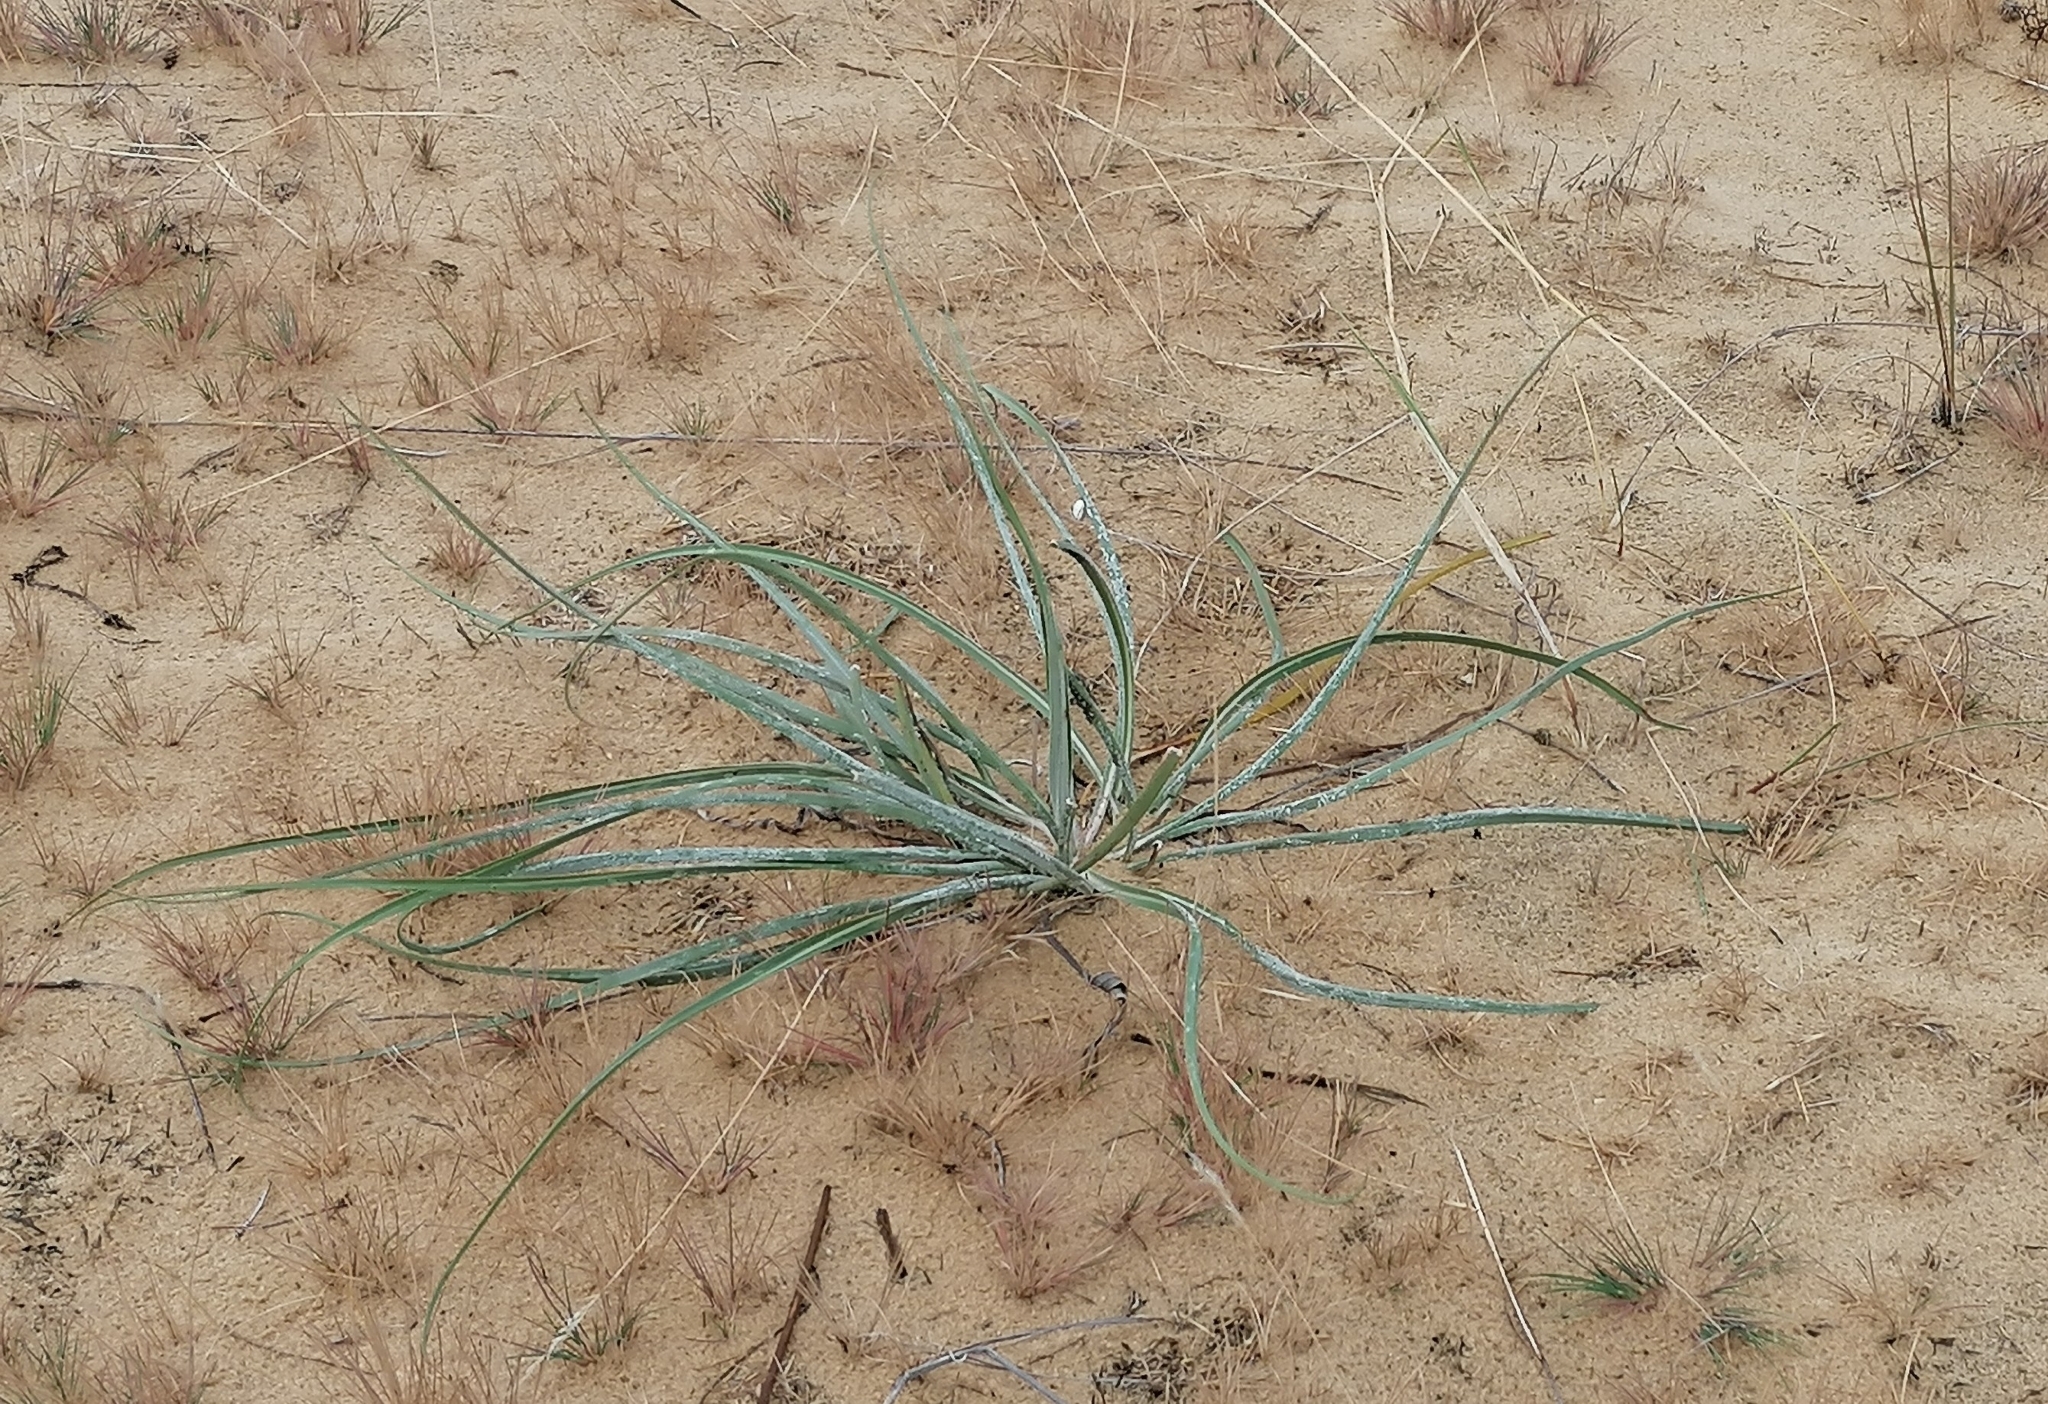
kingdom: Plantae
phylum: Tracheophyta
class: Magnoliopsida
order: Asterales
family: Asteraceae
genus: Tragopogon
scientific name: Tragopogon borystenicus
